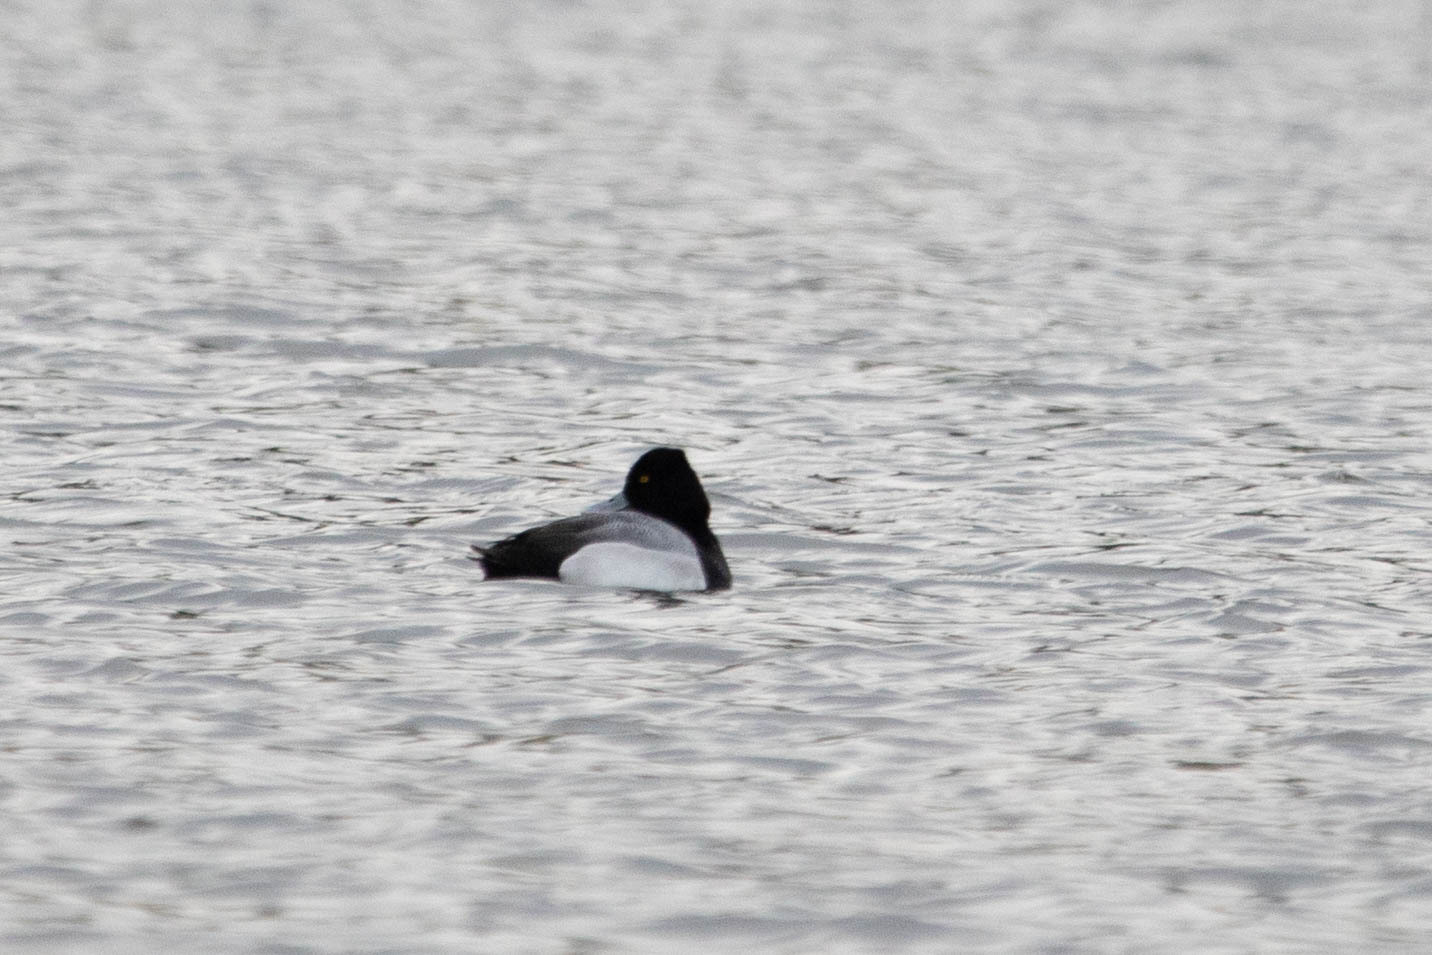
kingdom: Animalia
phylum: Chordata
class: Aves
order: Anseriformes
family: Anatidae
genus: Aythya
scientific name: Aythya affinis
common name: Lesser scaup
